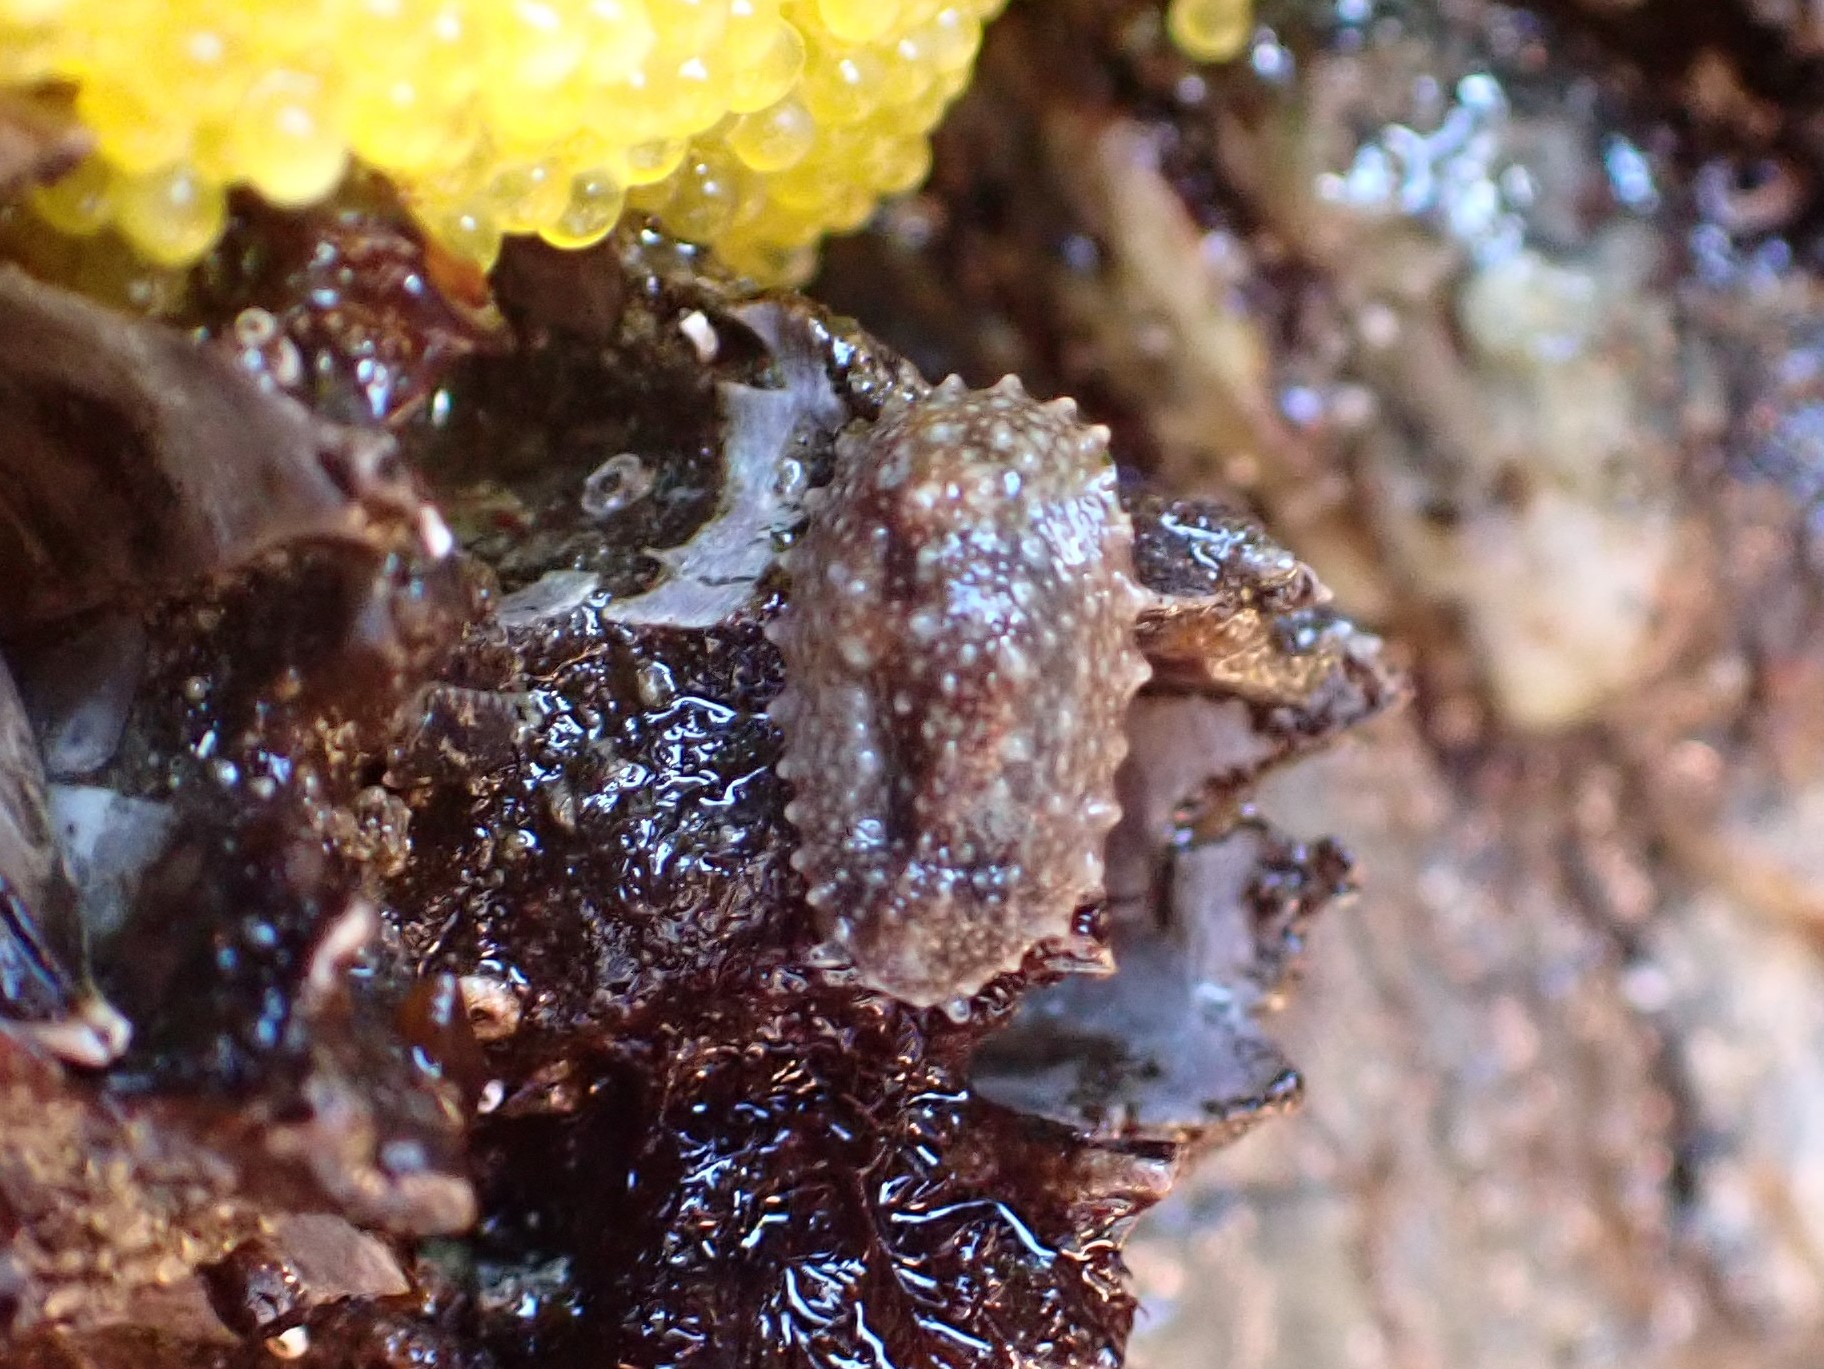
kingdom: Animalia
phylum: Mollusca
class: Gastropoda
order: Systellommatophora
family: Onchidiidae
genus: Onchidella
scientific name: Onchidella carpenteri
